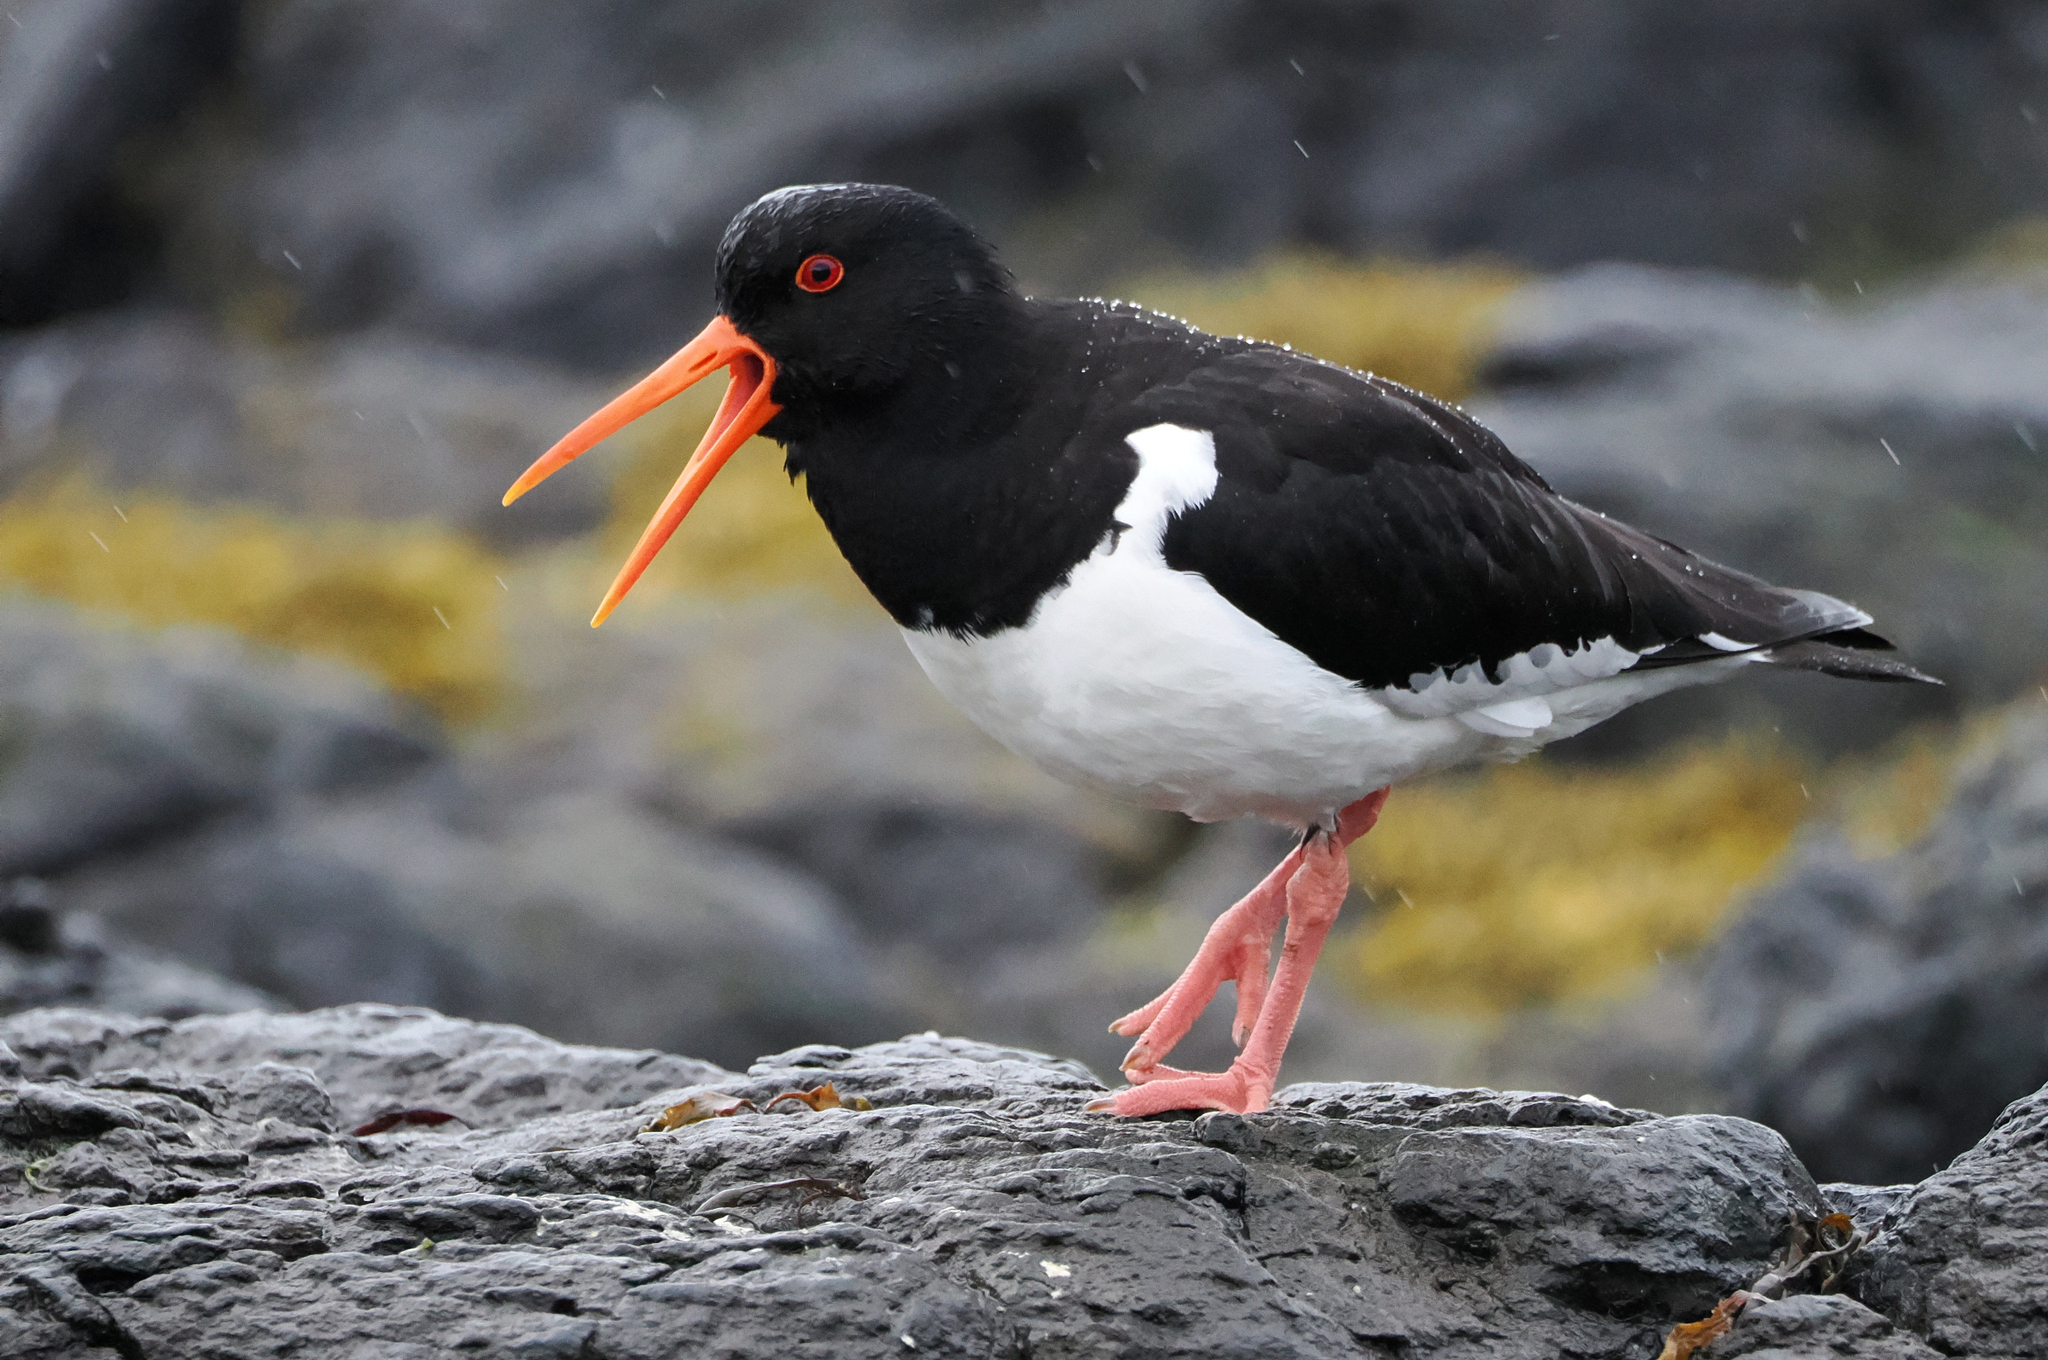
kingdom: Animalia
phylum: Chordata
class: Aves
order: Charadriiformes
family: Haematopodidae
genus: Haematopus
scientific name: Haematopus ostralegus
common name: Eurasian oystercatcher
